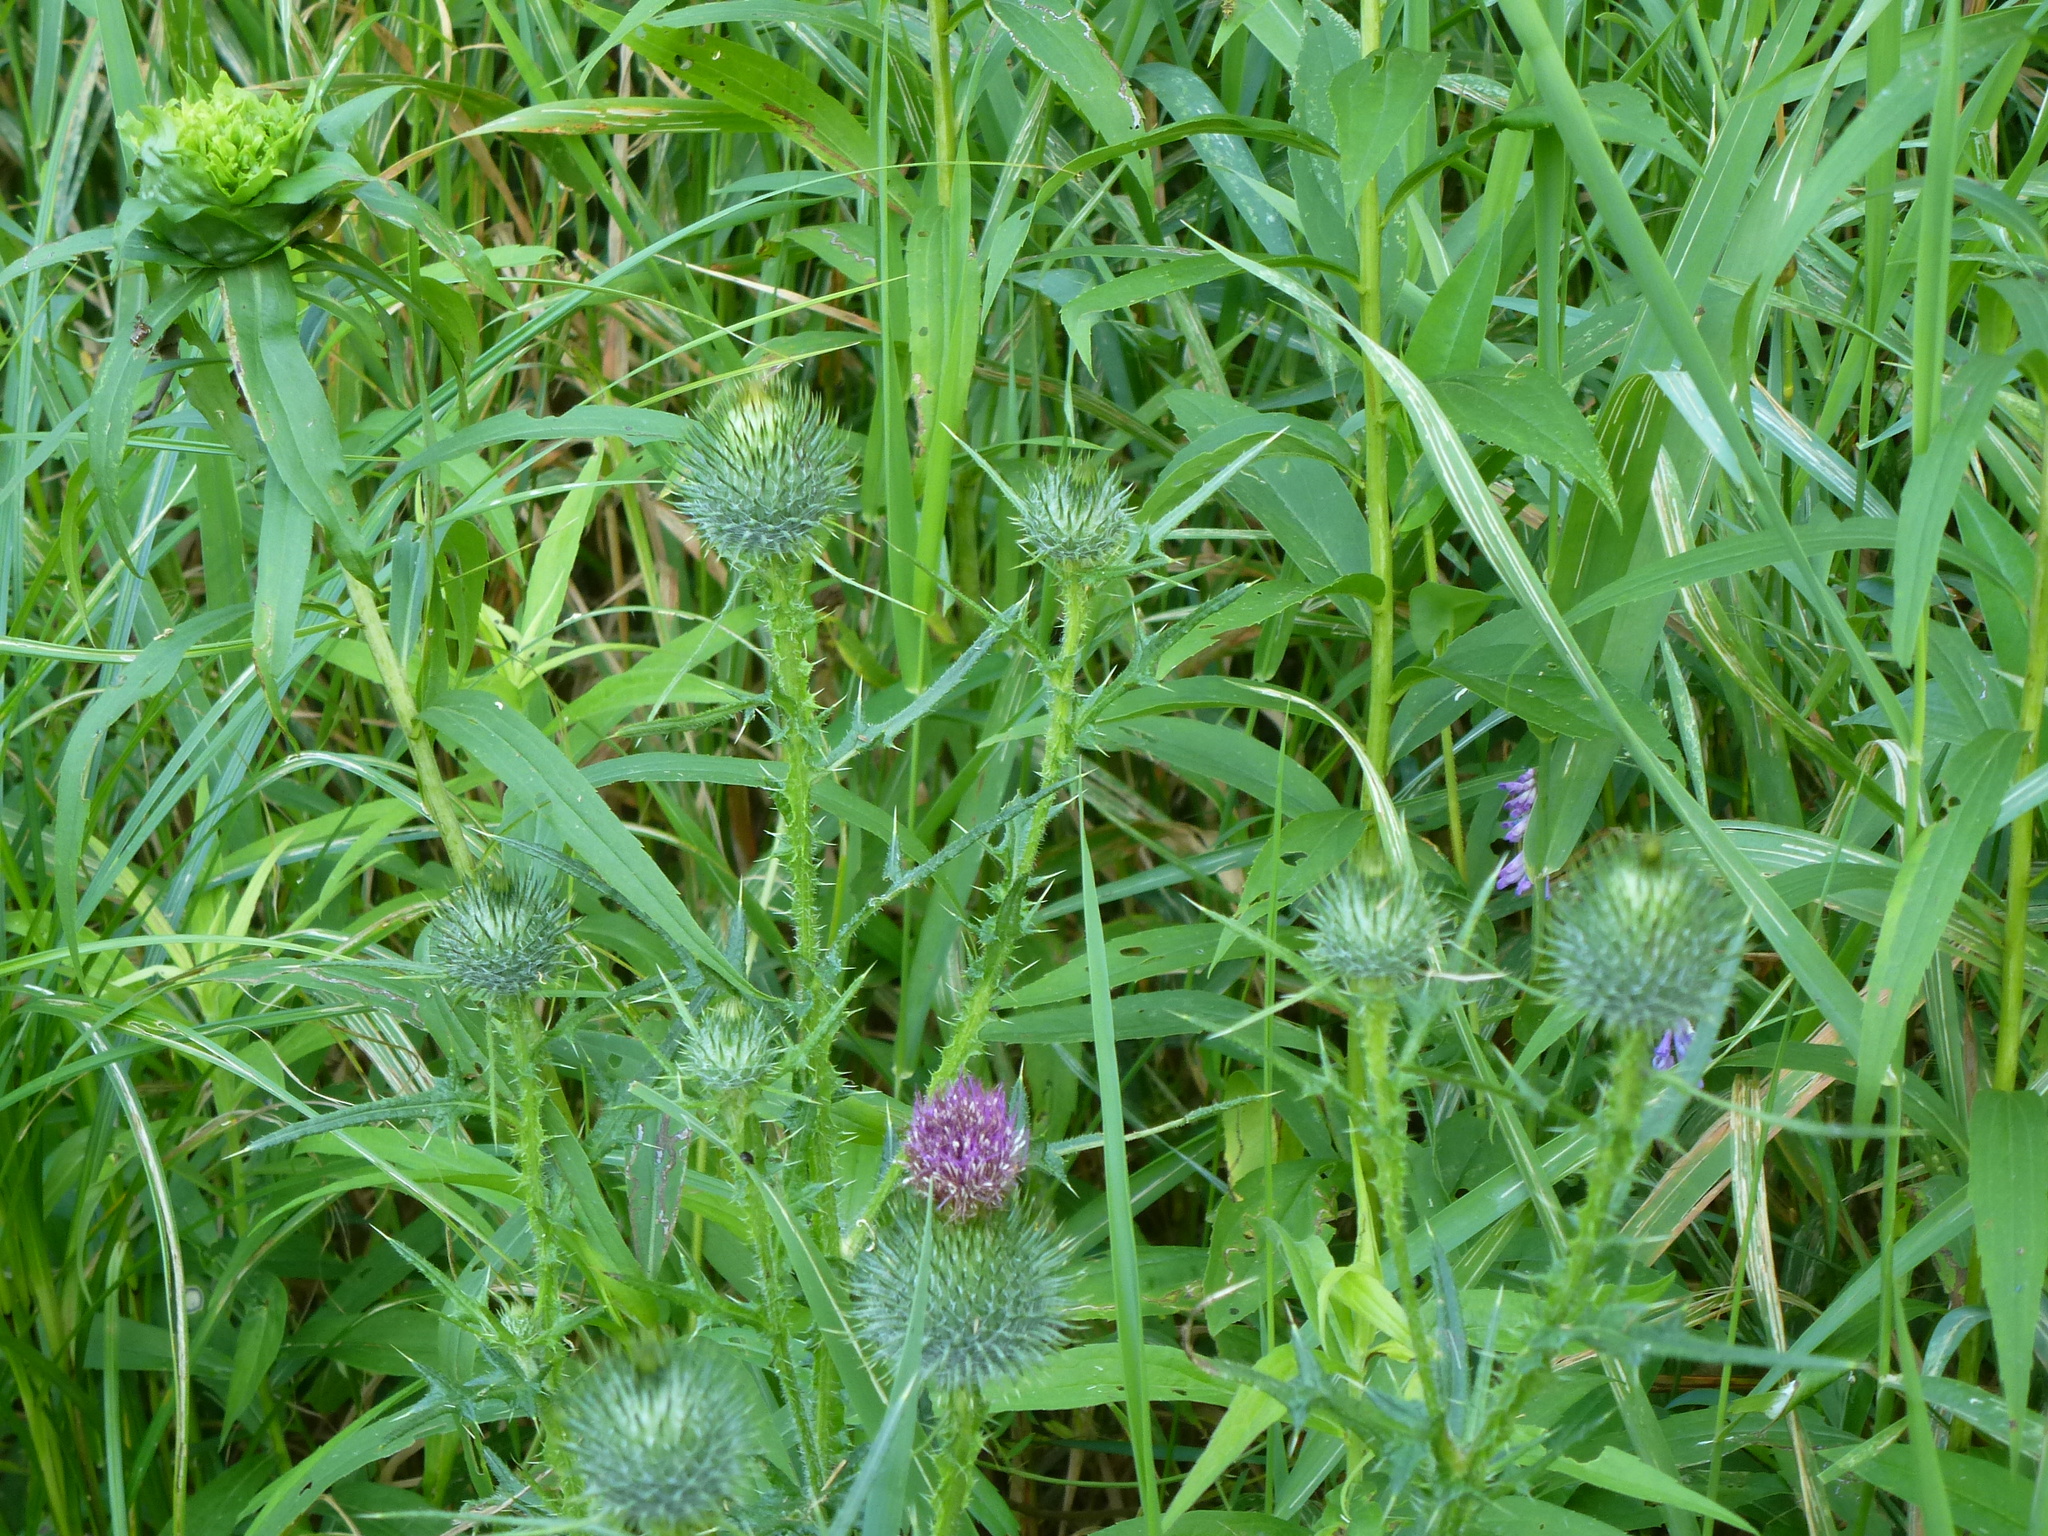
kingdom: Plantae
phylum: Tracheophyta
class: Magnoliopsida
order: Asterales
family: Asteraceae
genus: Cirsium
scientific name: Cirsium vulgare
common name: Bull thistle
